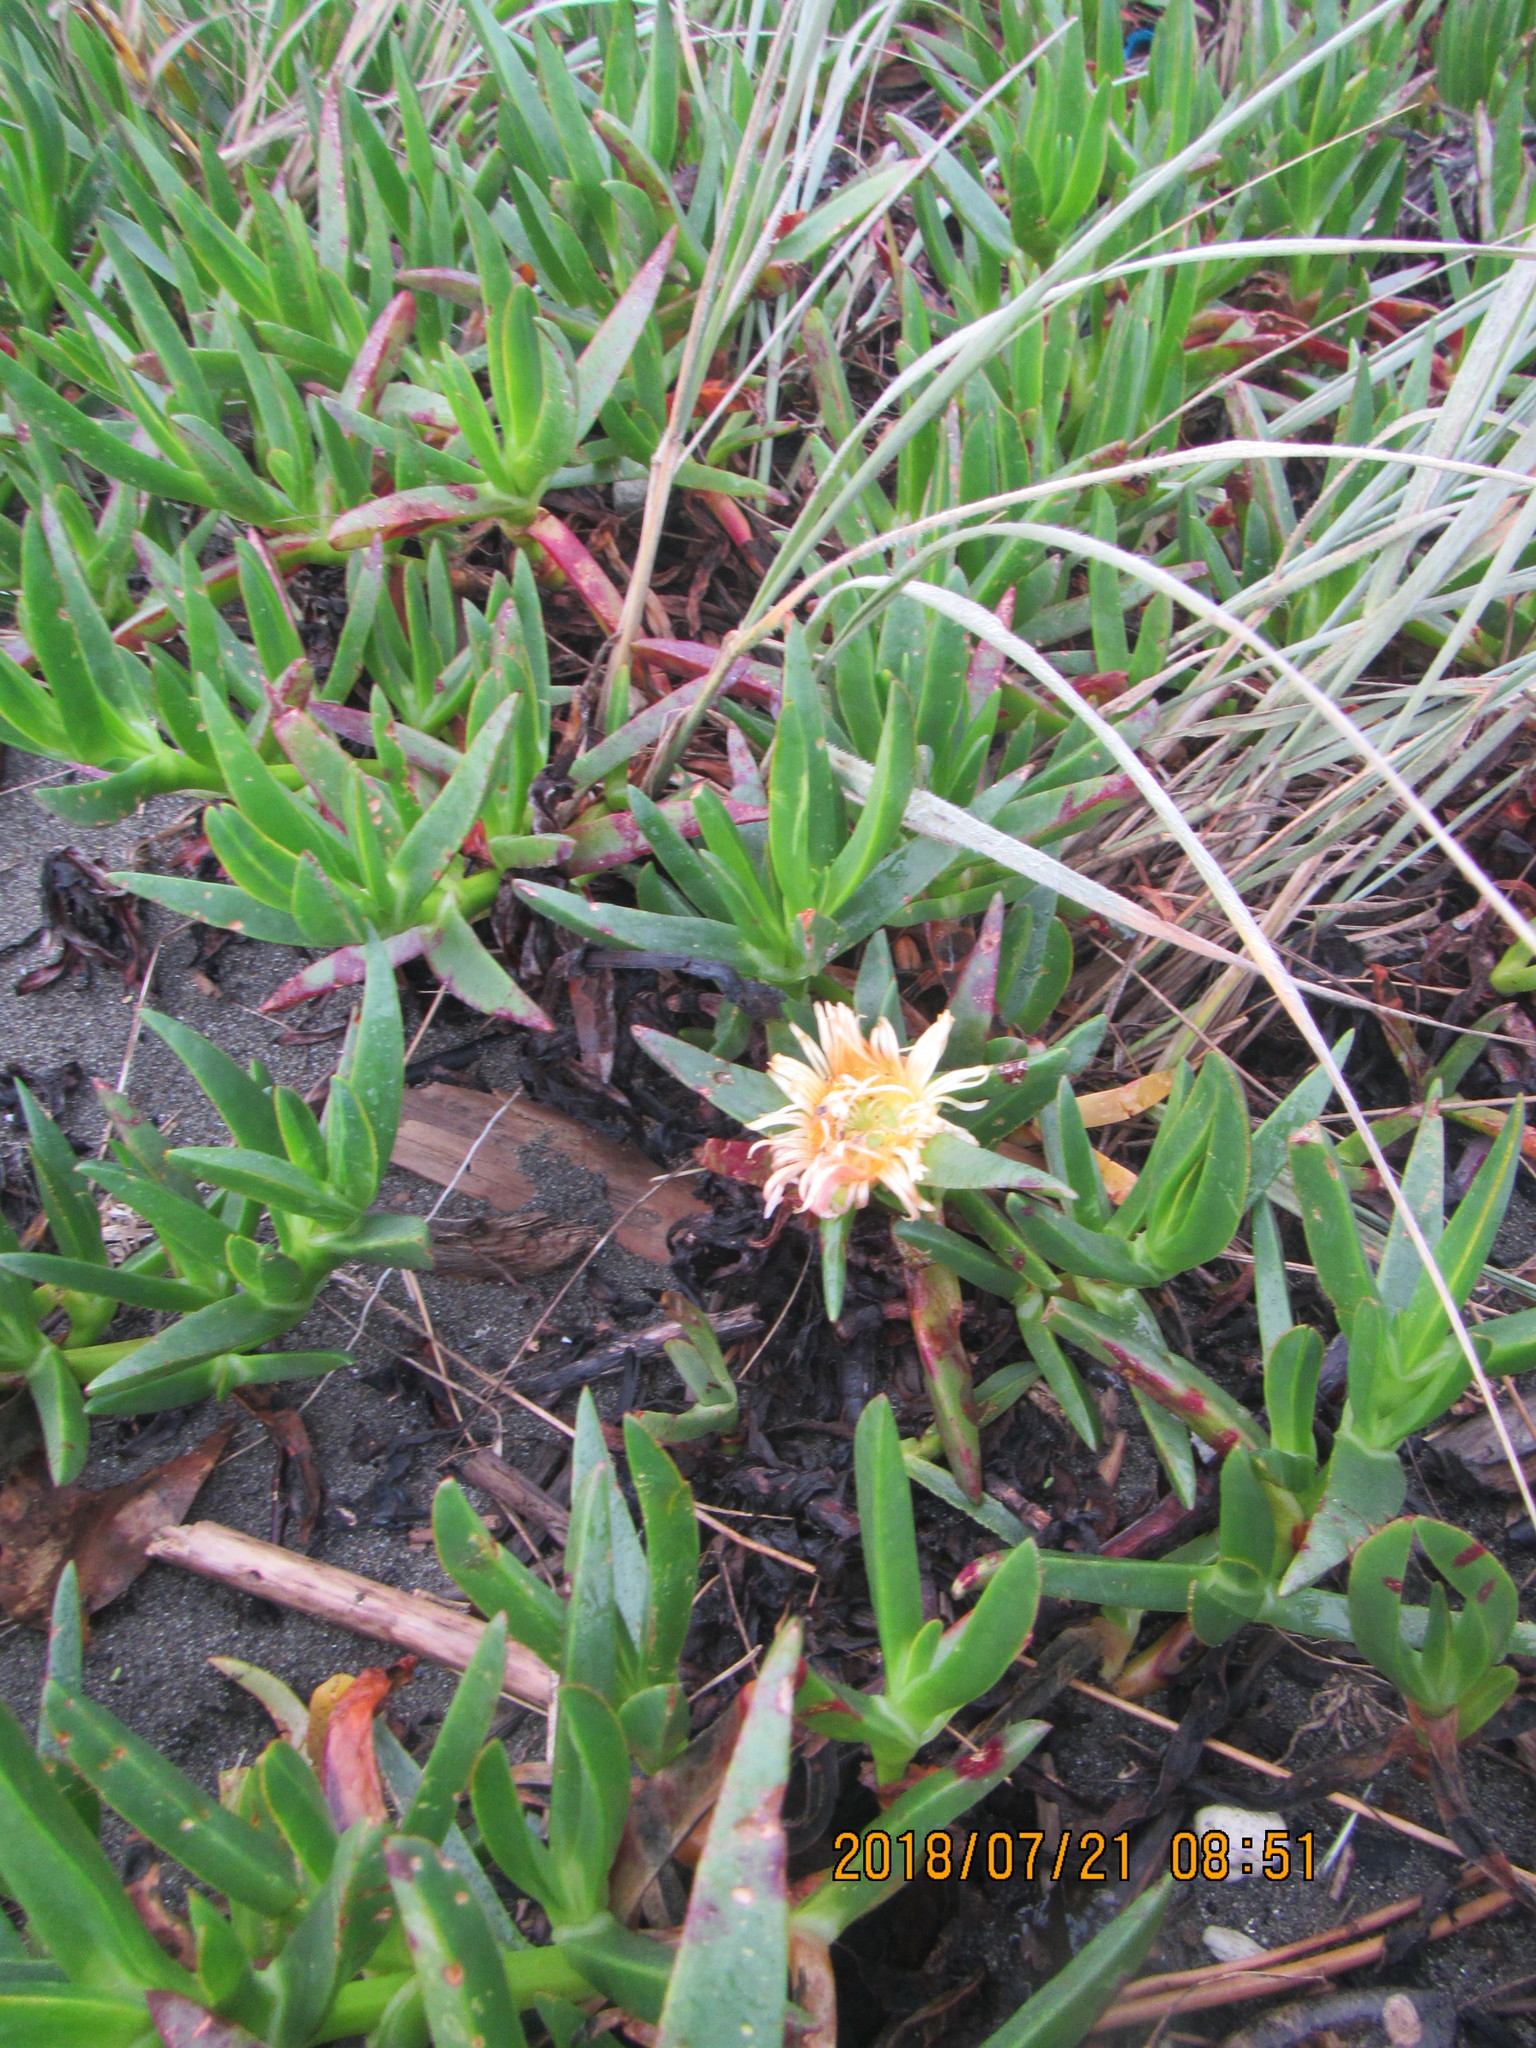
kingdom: Plantae
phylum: Tracheophyta
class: Magnoliopsida
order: Caryophyllales
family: Aizoaceae
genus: Carpobrotus
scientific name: Carpobrotus edulis
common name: Hottentot-fig
